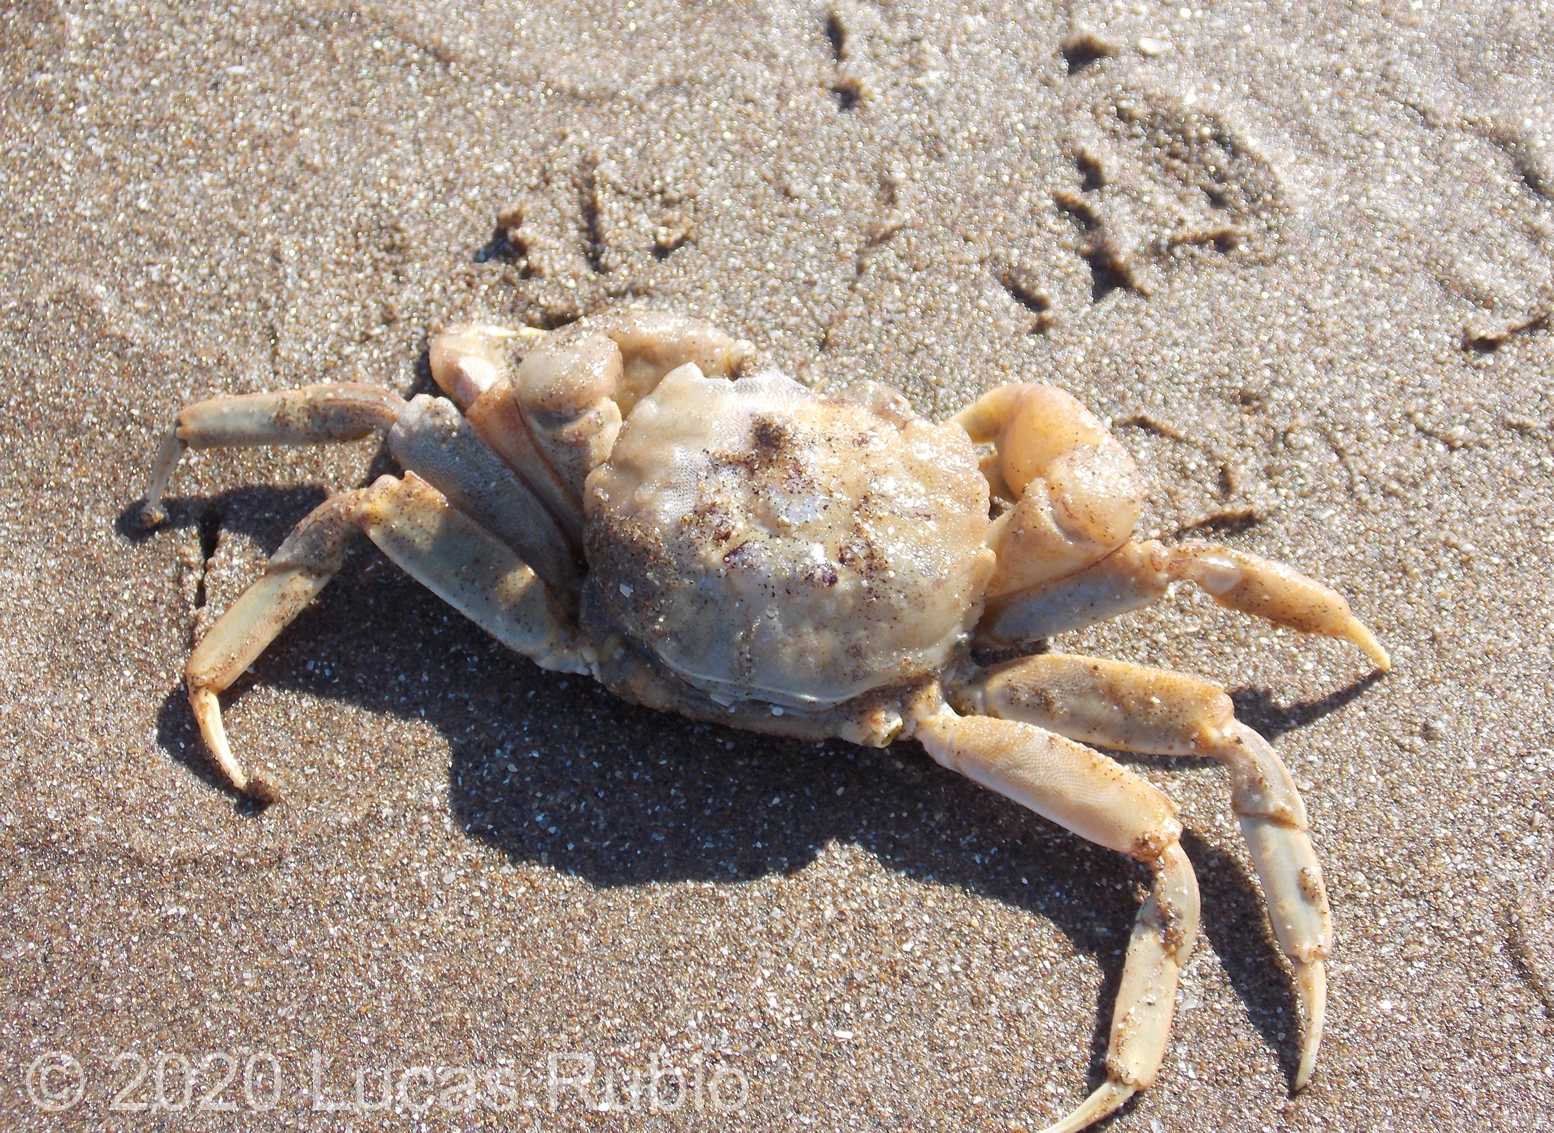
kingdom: Animalia
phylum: Arthropoda
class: Malacostraca
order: Decapoda
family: Varunidae
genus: Cyrtograpsus
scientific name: Cyrtograpsus angulatus
